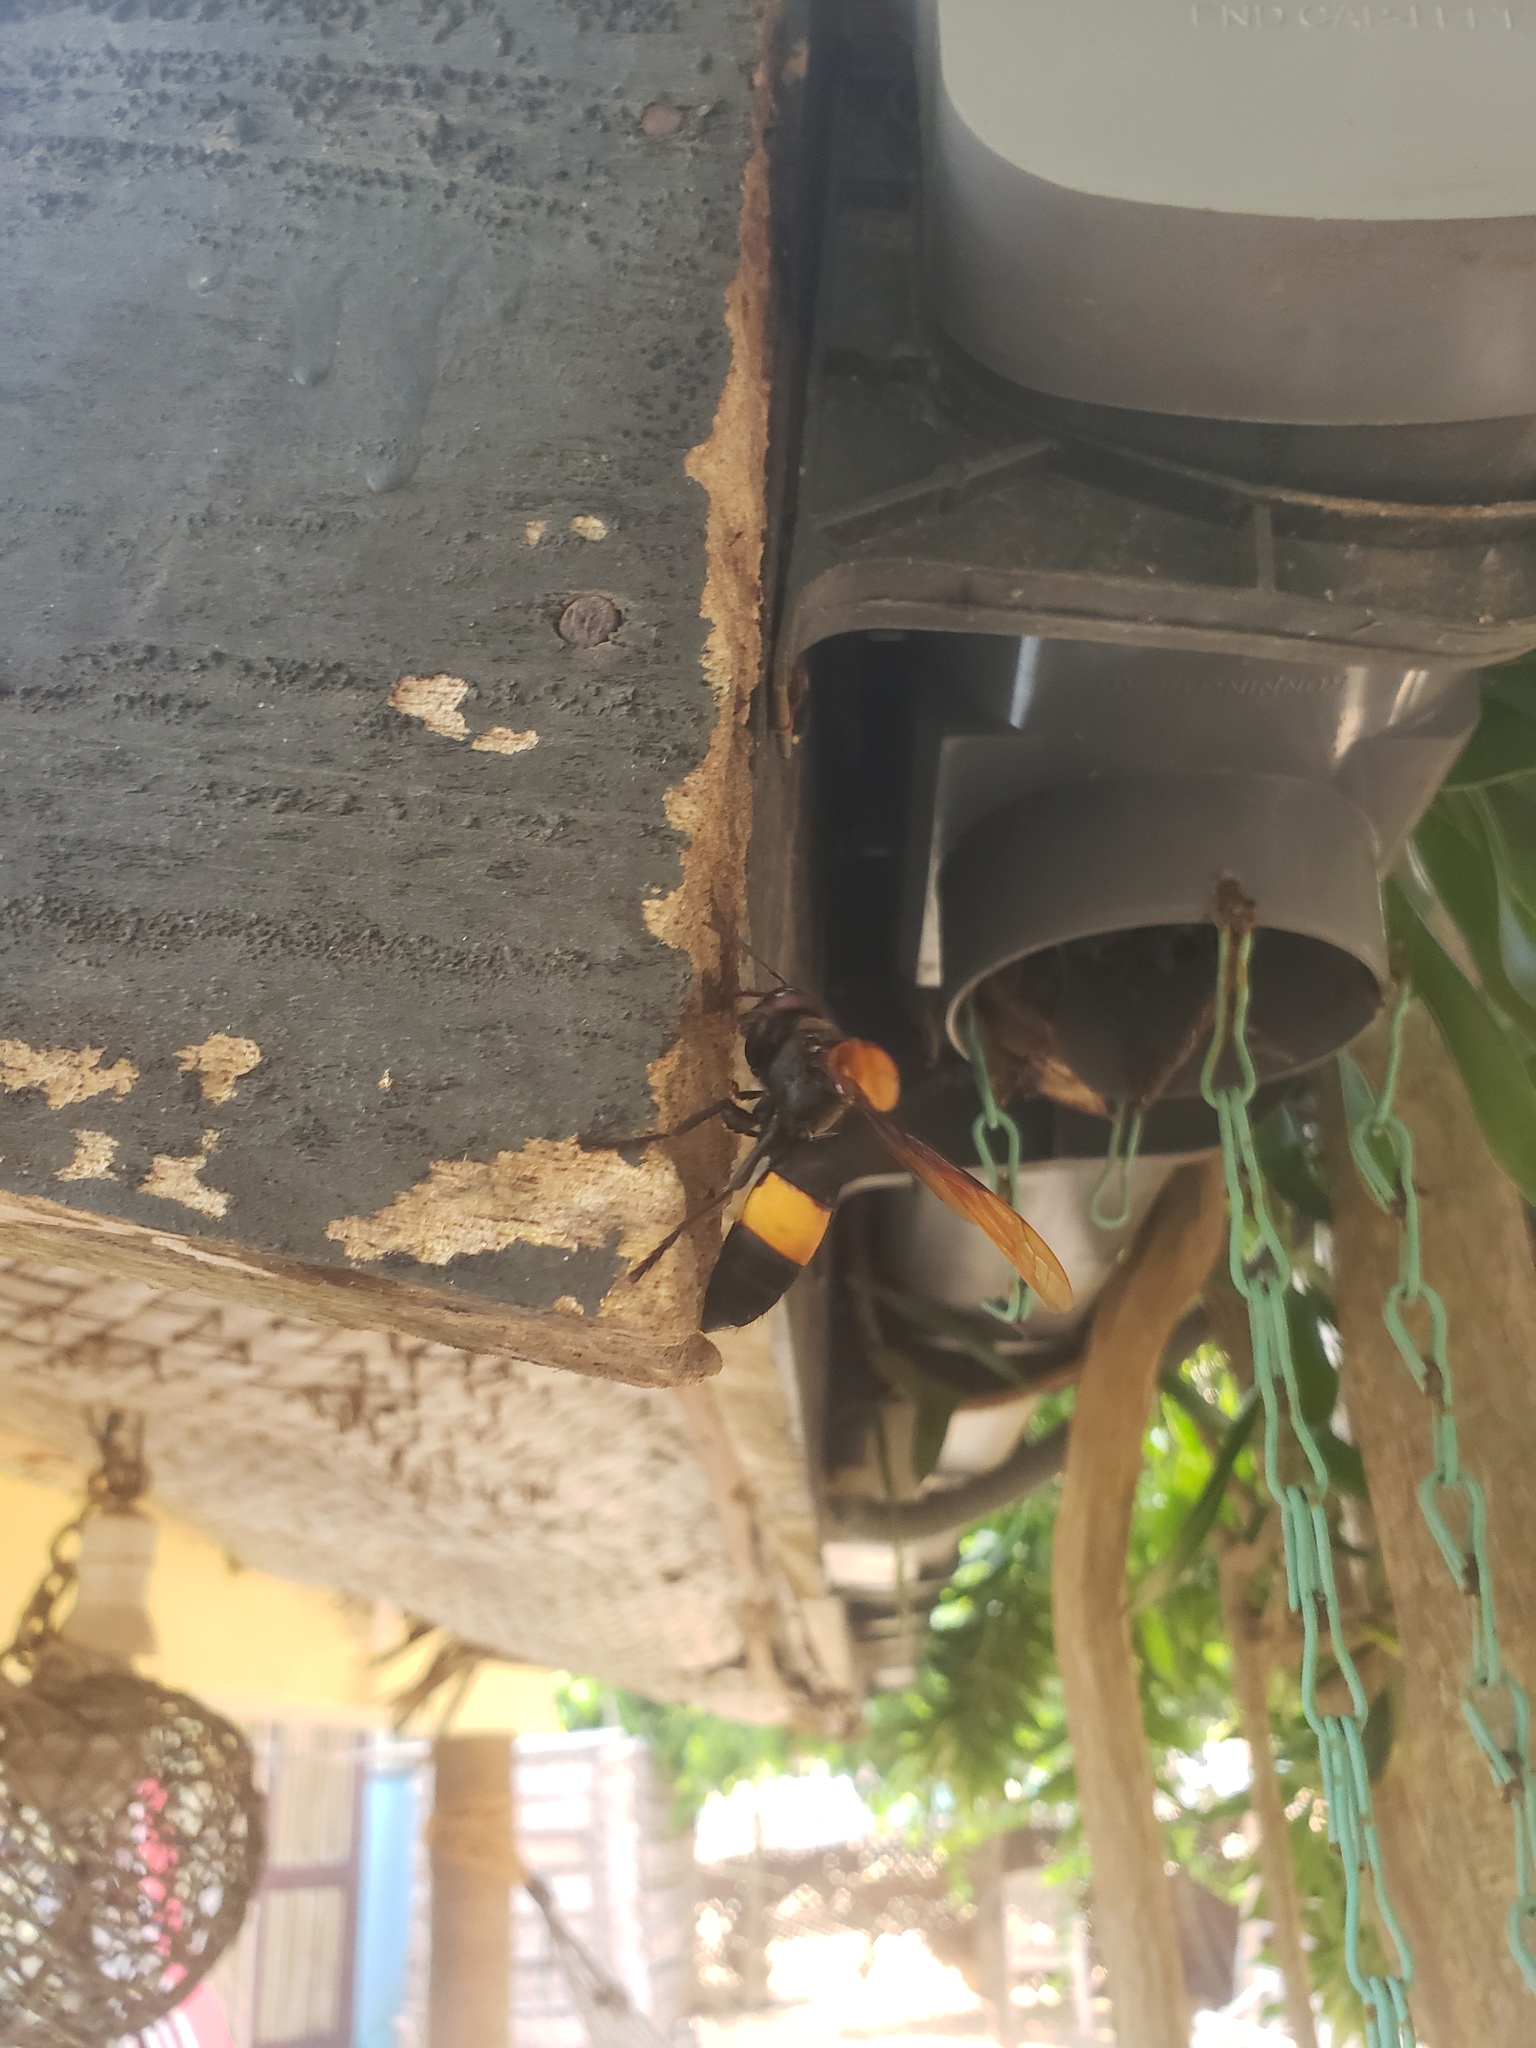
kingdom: Animalia
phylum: Arthropoda
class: Insecta
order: Hymenoptera
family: Vespidae
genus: Vespa
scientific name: Vespa tropica
